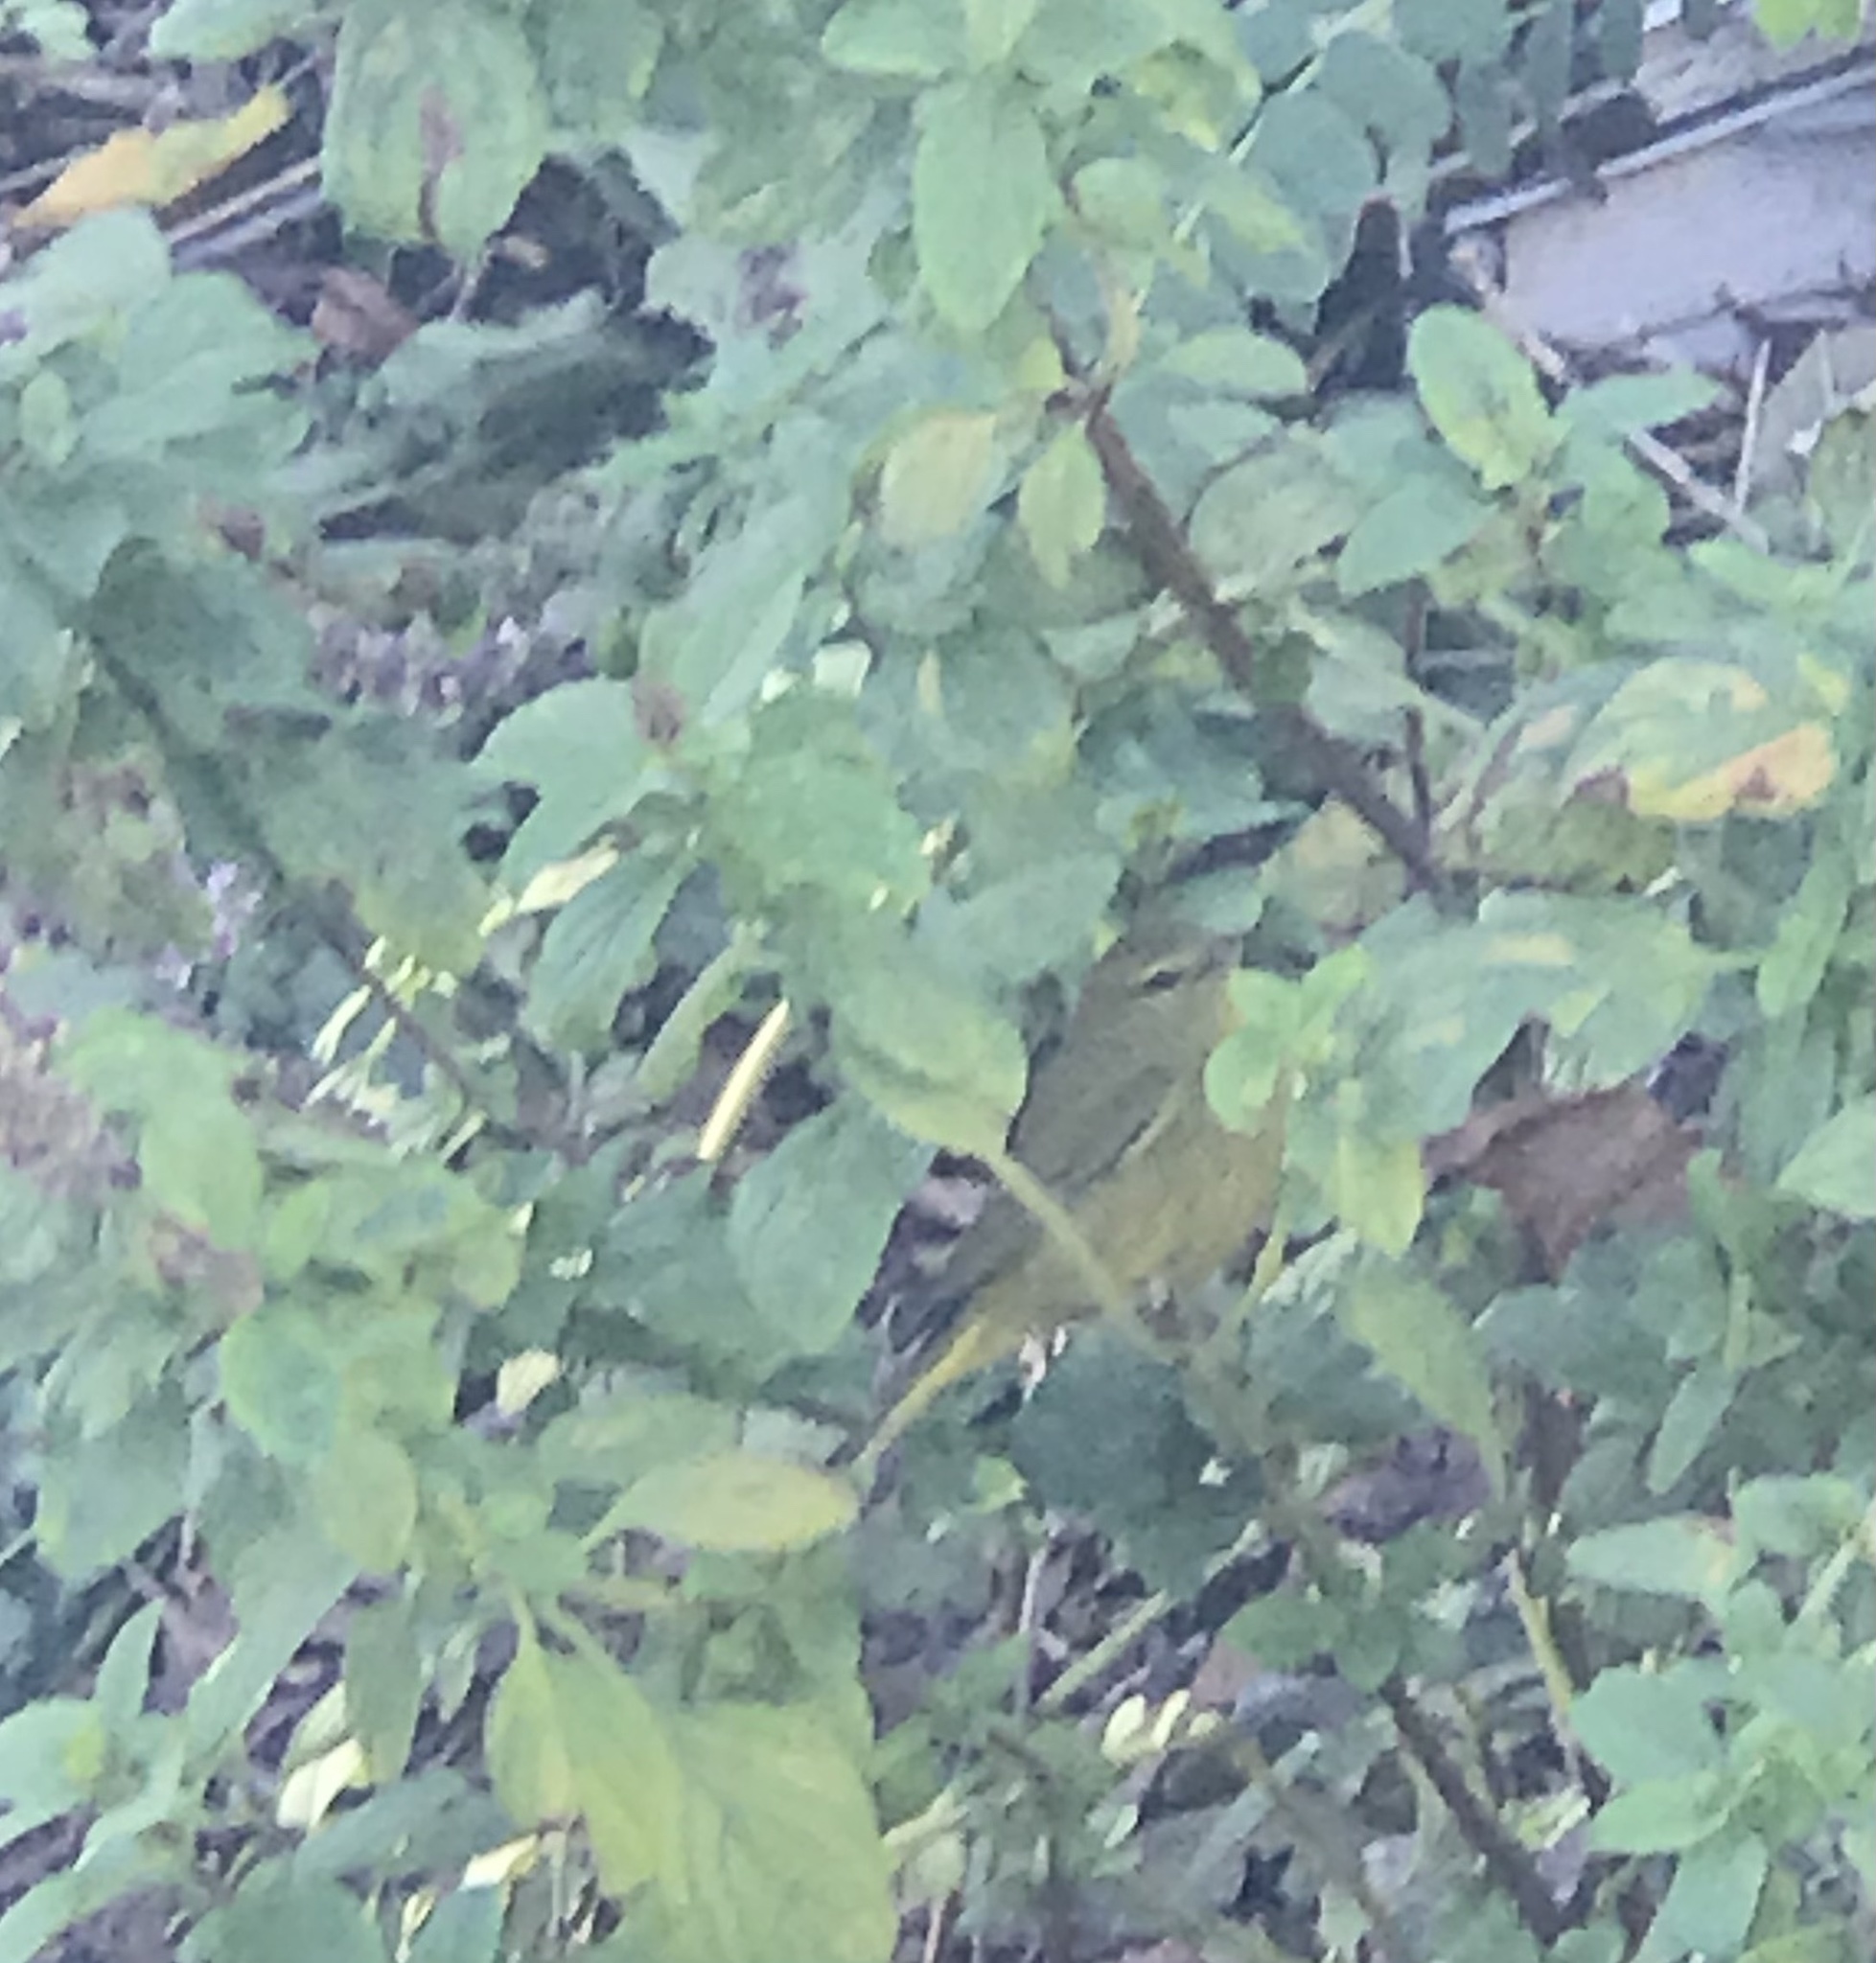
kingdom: Animalia
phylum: Chordata
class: Aves
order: Passeriformes
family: Parulidae
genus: Leiothlypis
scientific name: Leiothlypis celata
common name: Orange-crowned warbler
